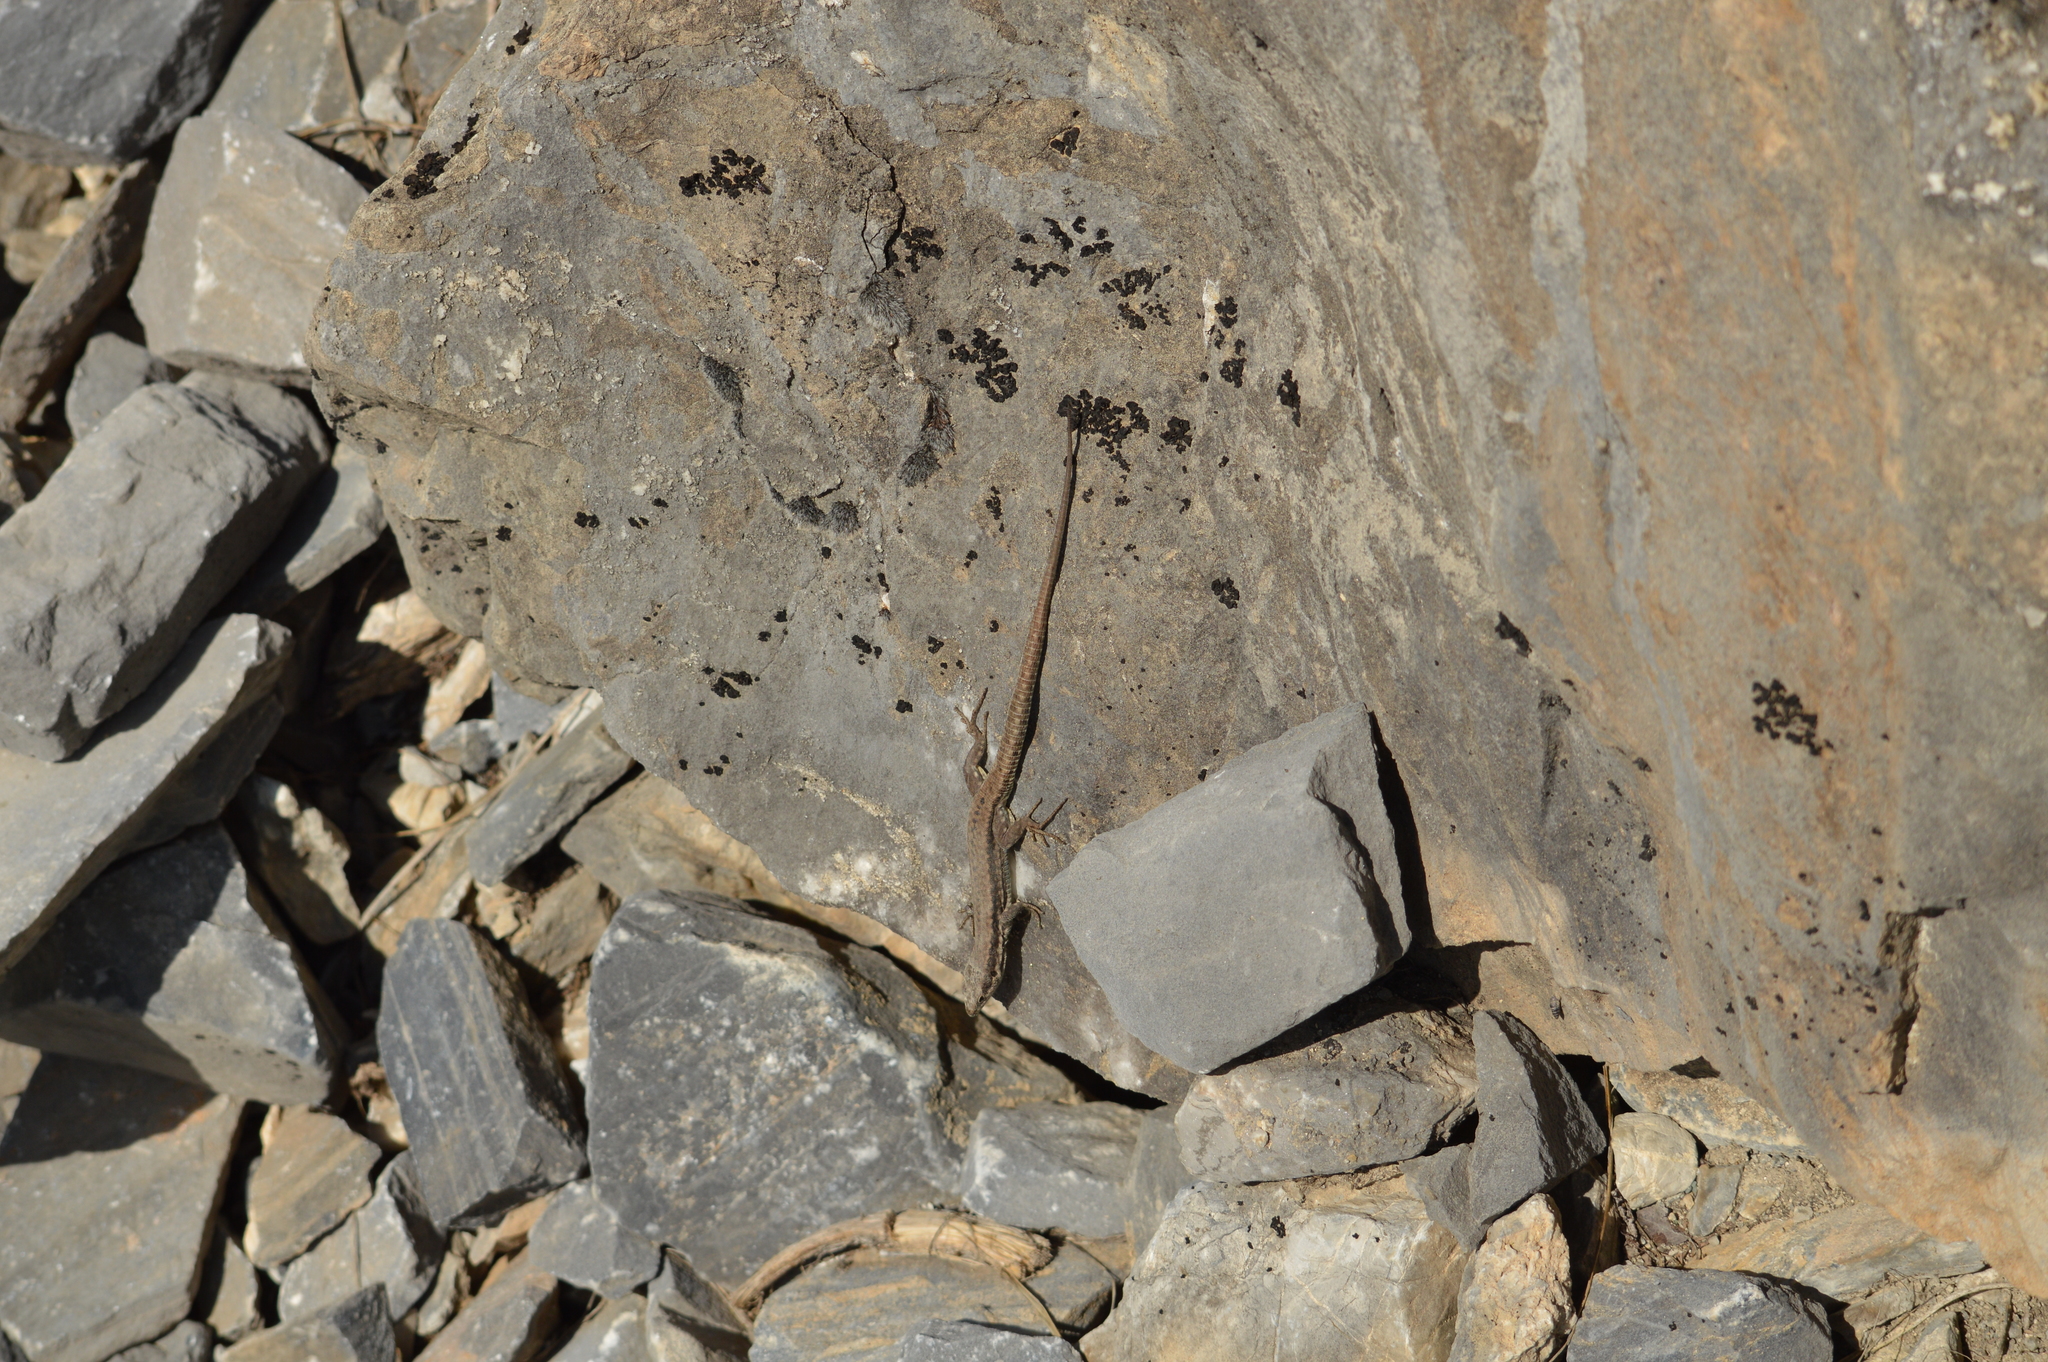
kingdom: Animalia
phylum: Chordata
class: Squamata
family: Lacertidae
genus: Podarcis
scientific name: Podarcis muralis
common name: Common wall lizard
